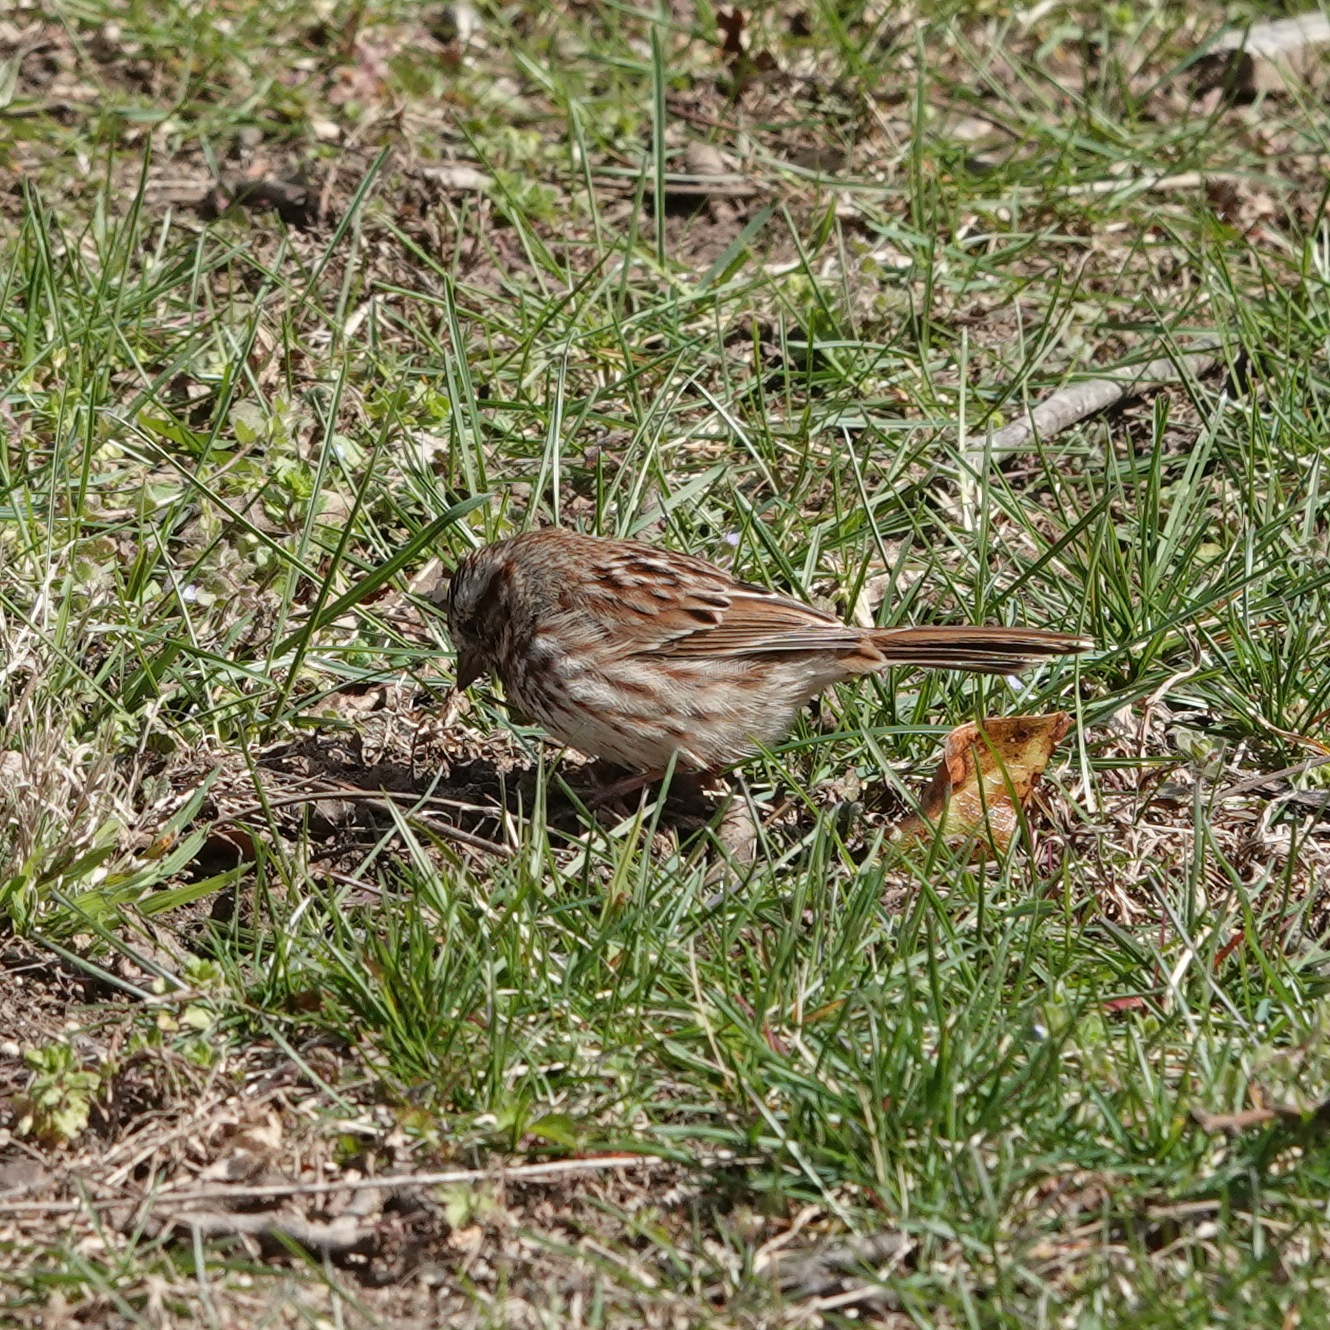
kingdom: Animalia
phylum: Chordata
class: Aves
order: Passeriformes
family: Passerellidae
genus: Melospiza
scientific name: Melospiza melodia
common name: Song sparrow
